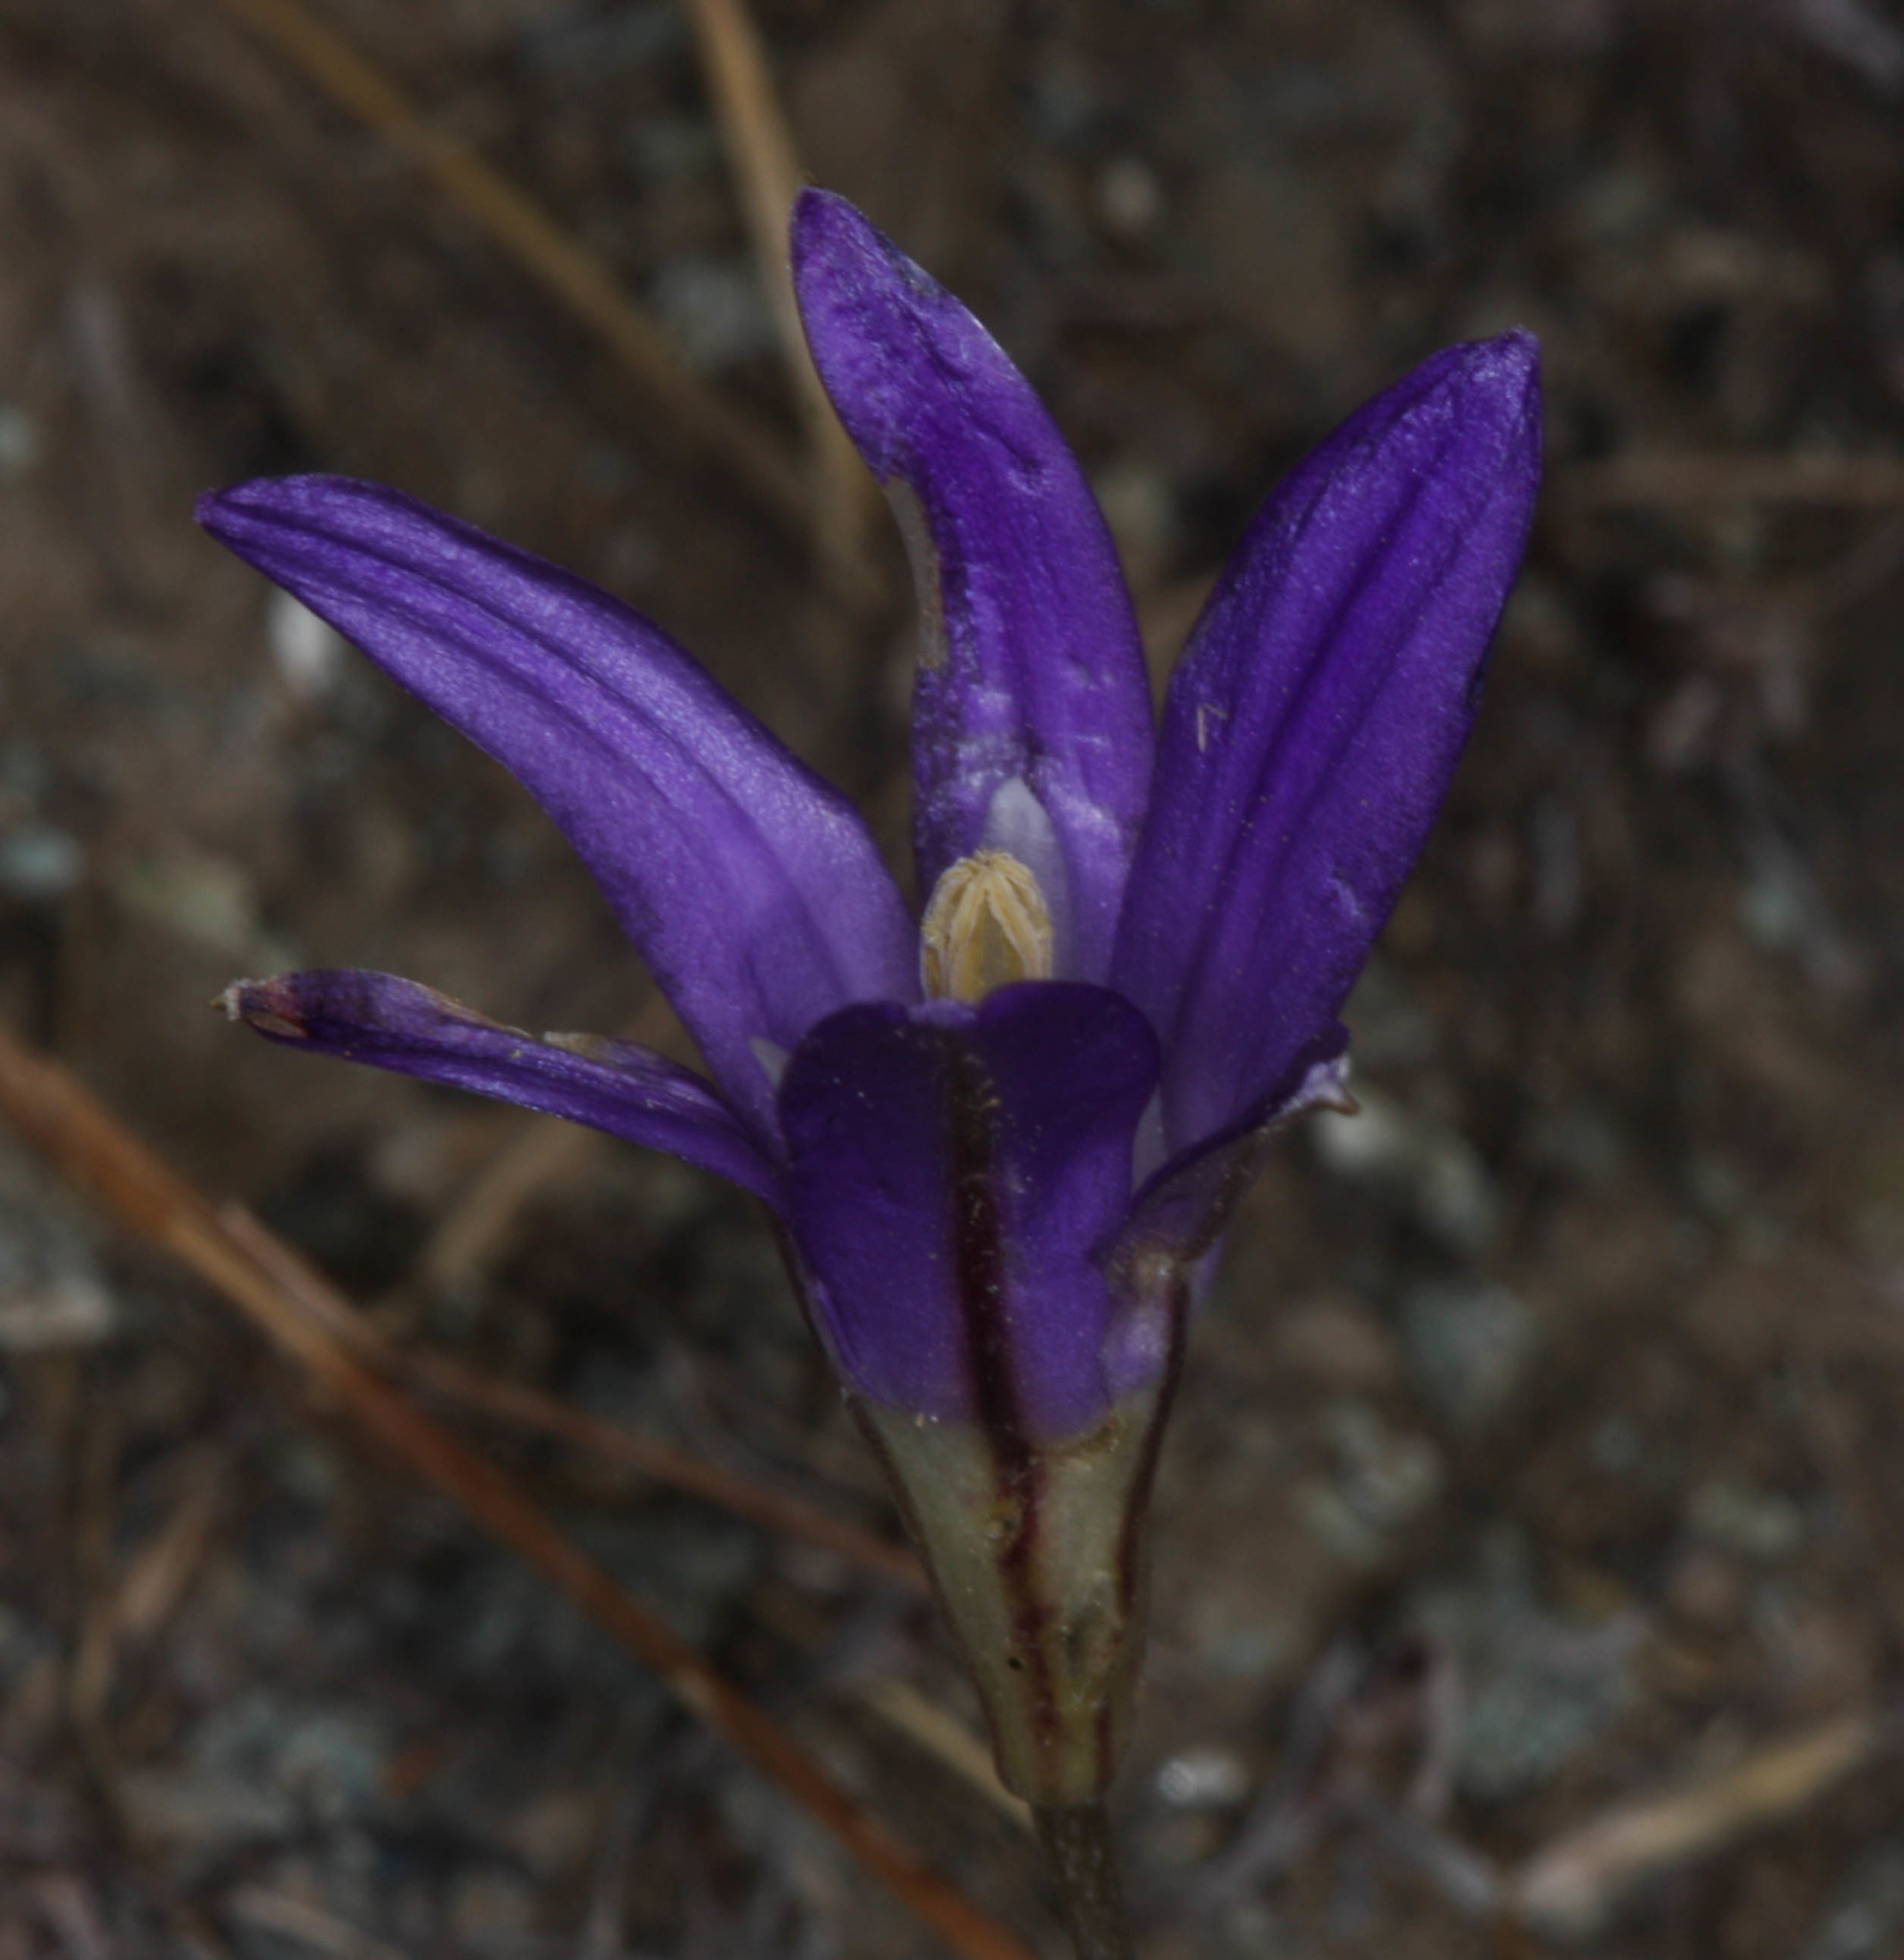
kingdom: Plantae
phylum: Tracheophyta
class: Liliopsida
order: Asparagales
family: Asparagaceae
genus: Brodiaea
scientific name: Brodiaea elegans
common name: Elegant cluster-lily
